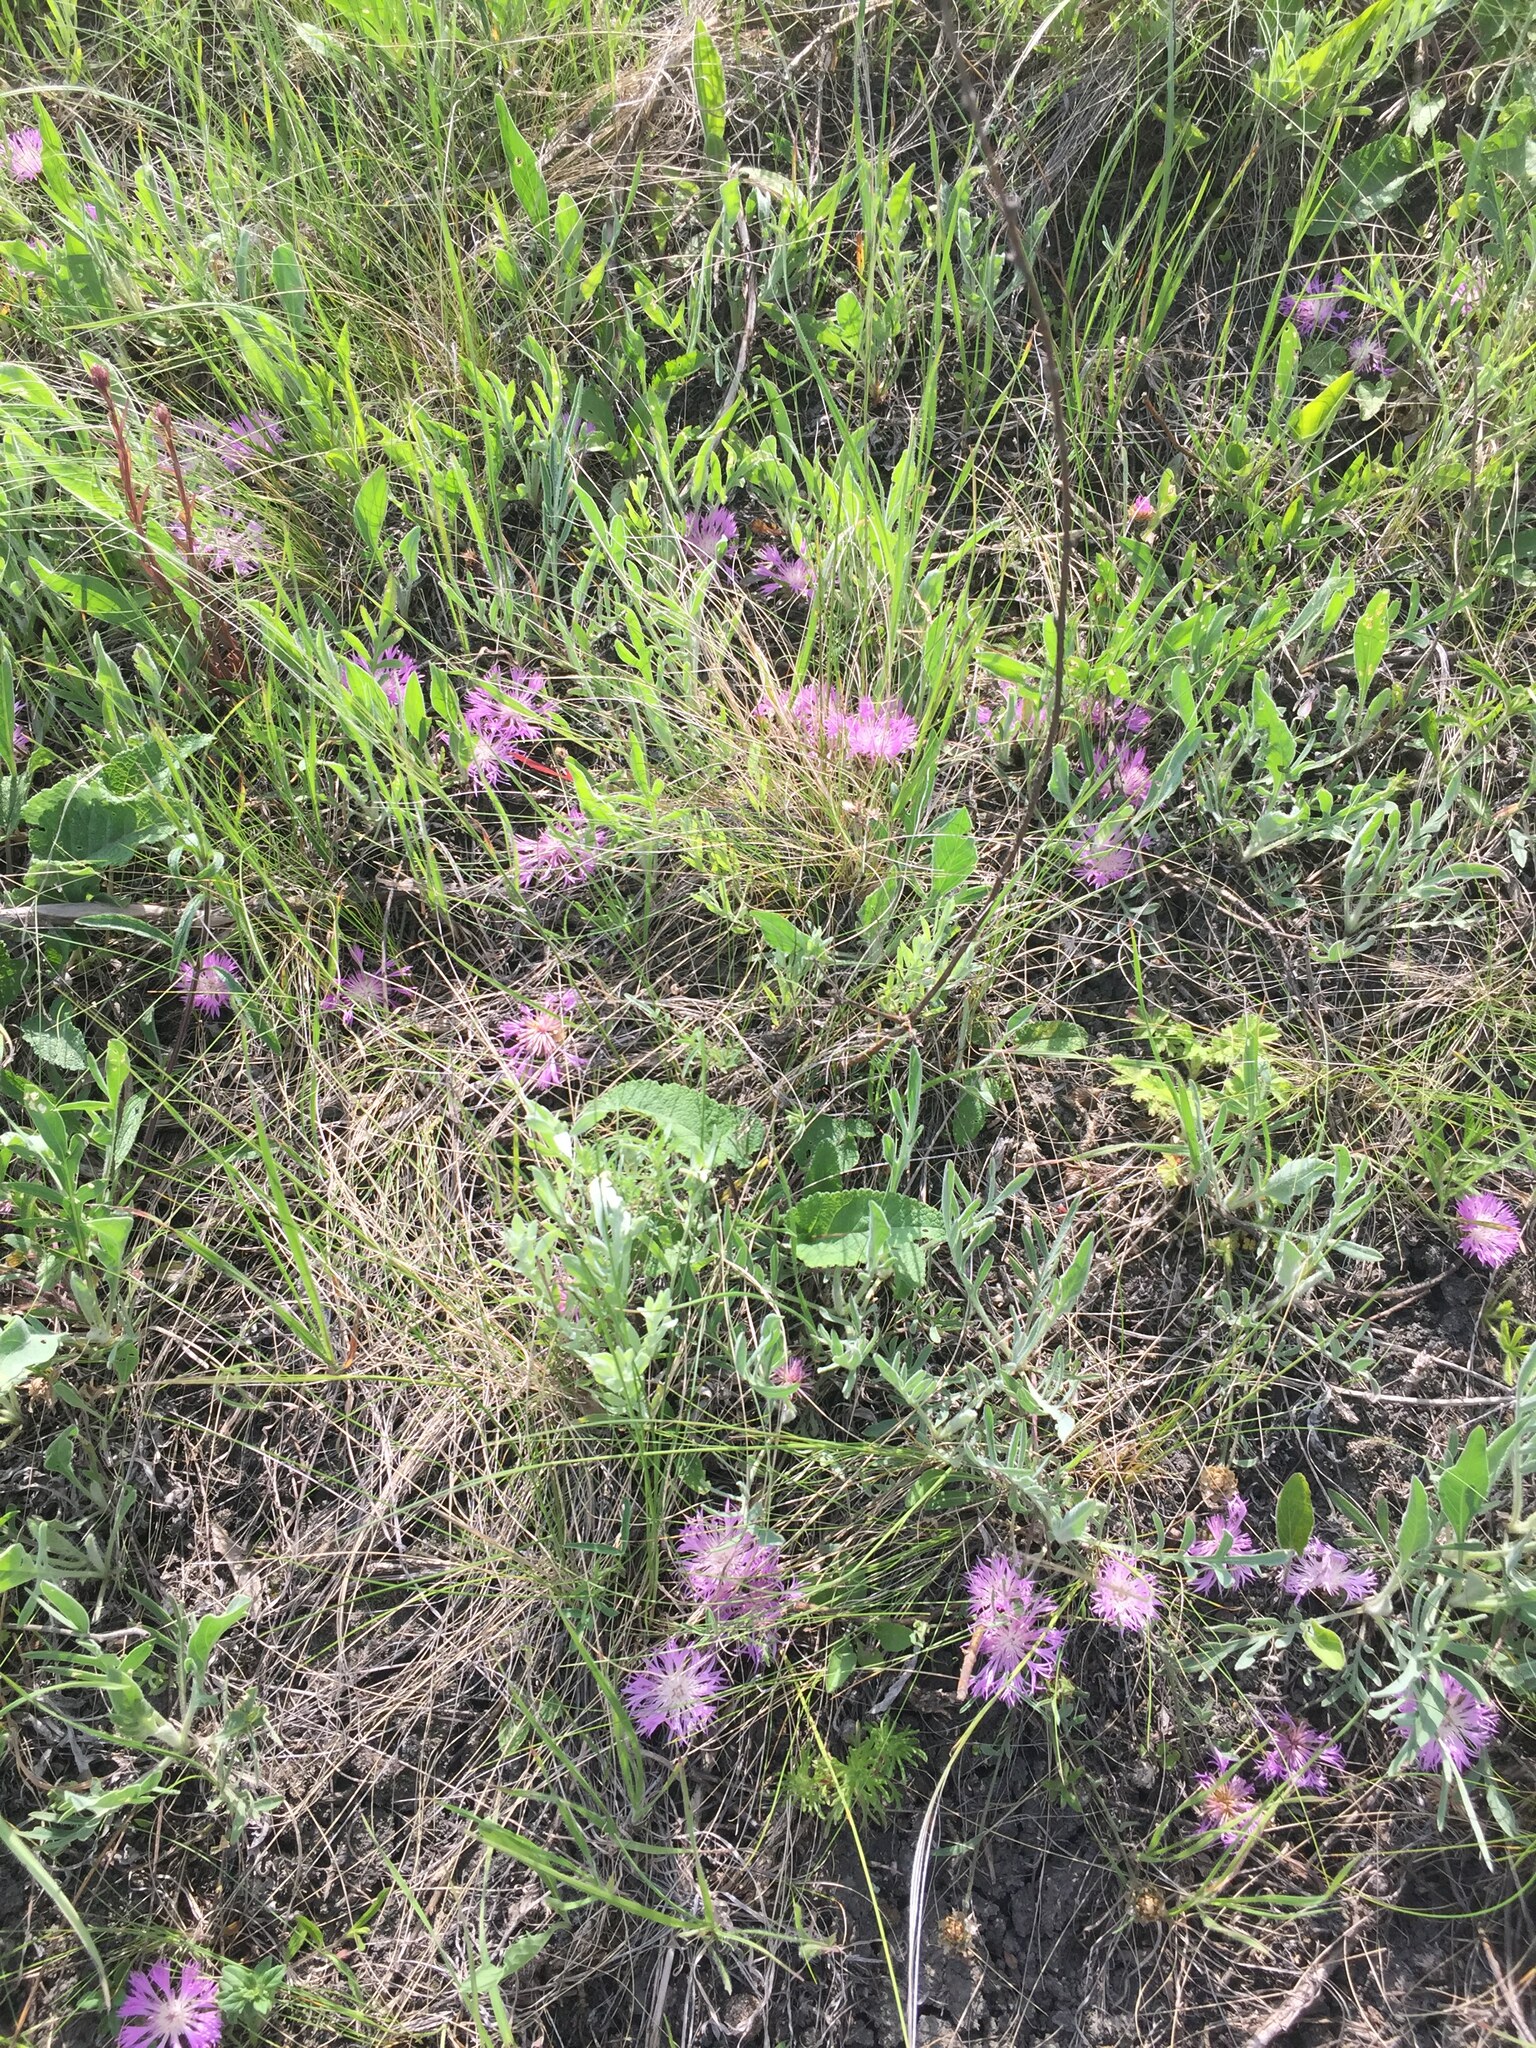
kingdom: Plantae
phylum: Tracheophyta
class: Magnoliopsida
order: Asterales
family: Asteraceae
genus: Psephellus
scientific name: Psephellus marschallianus
